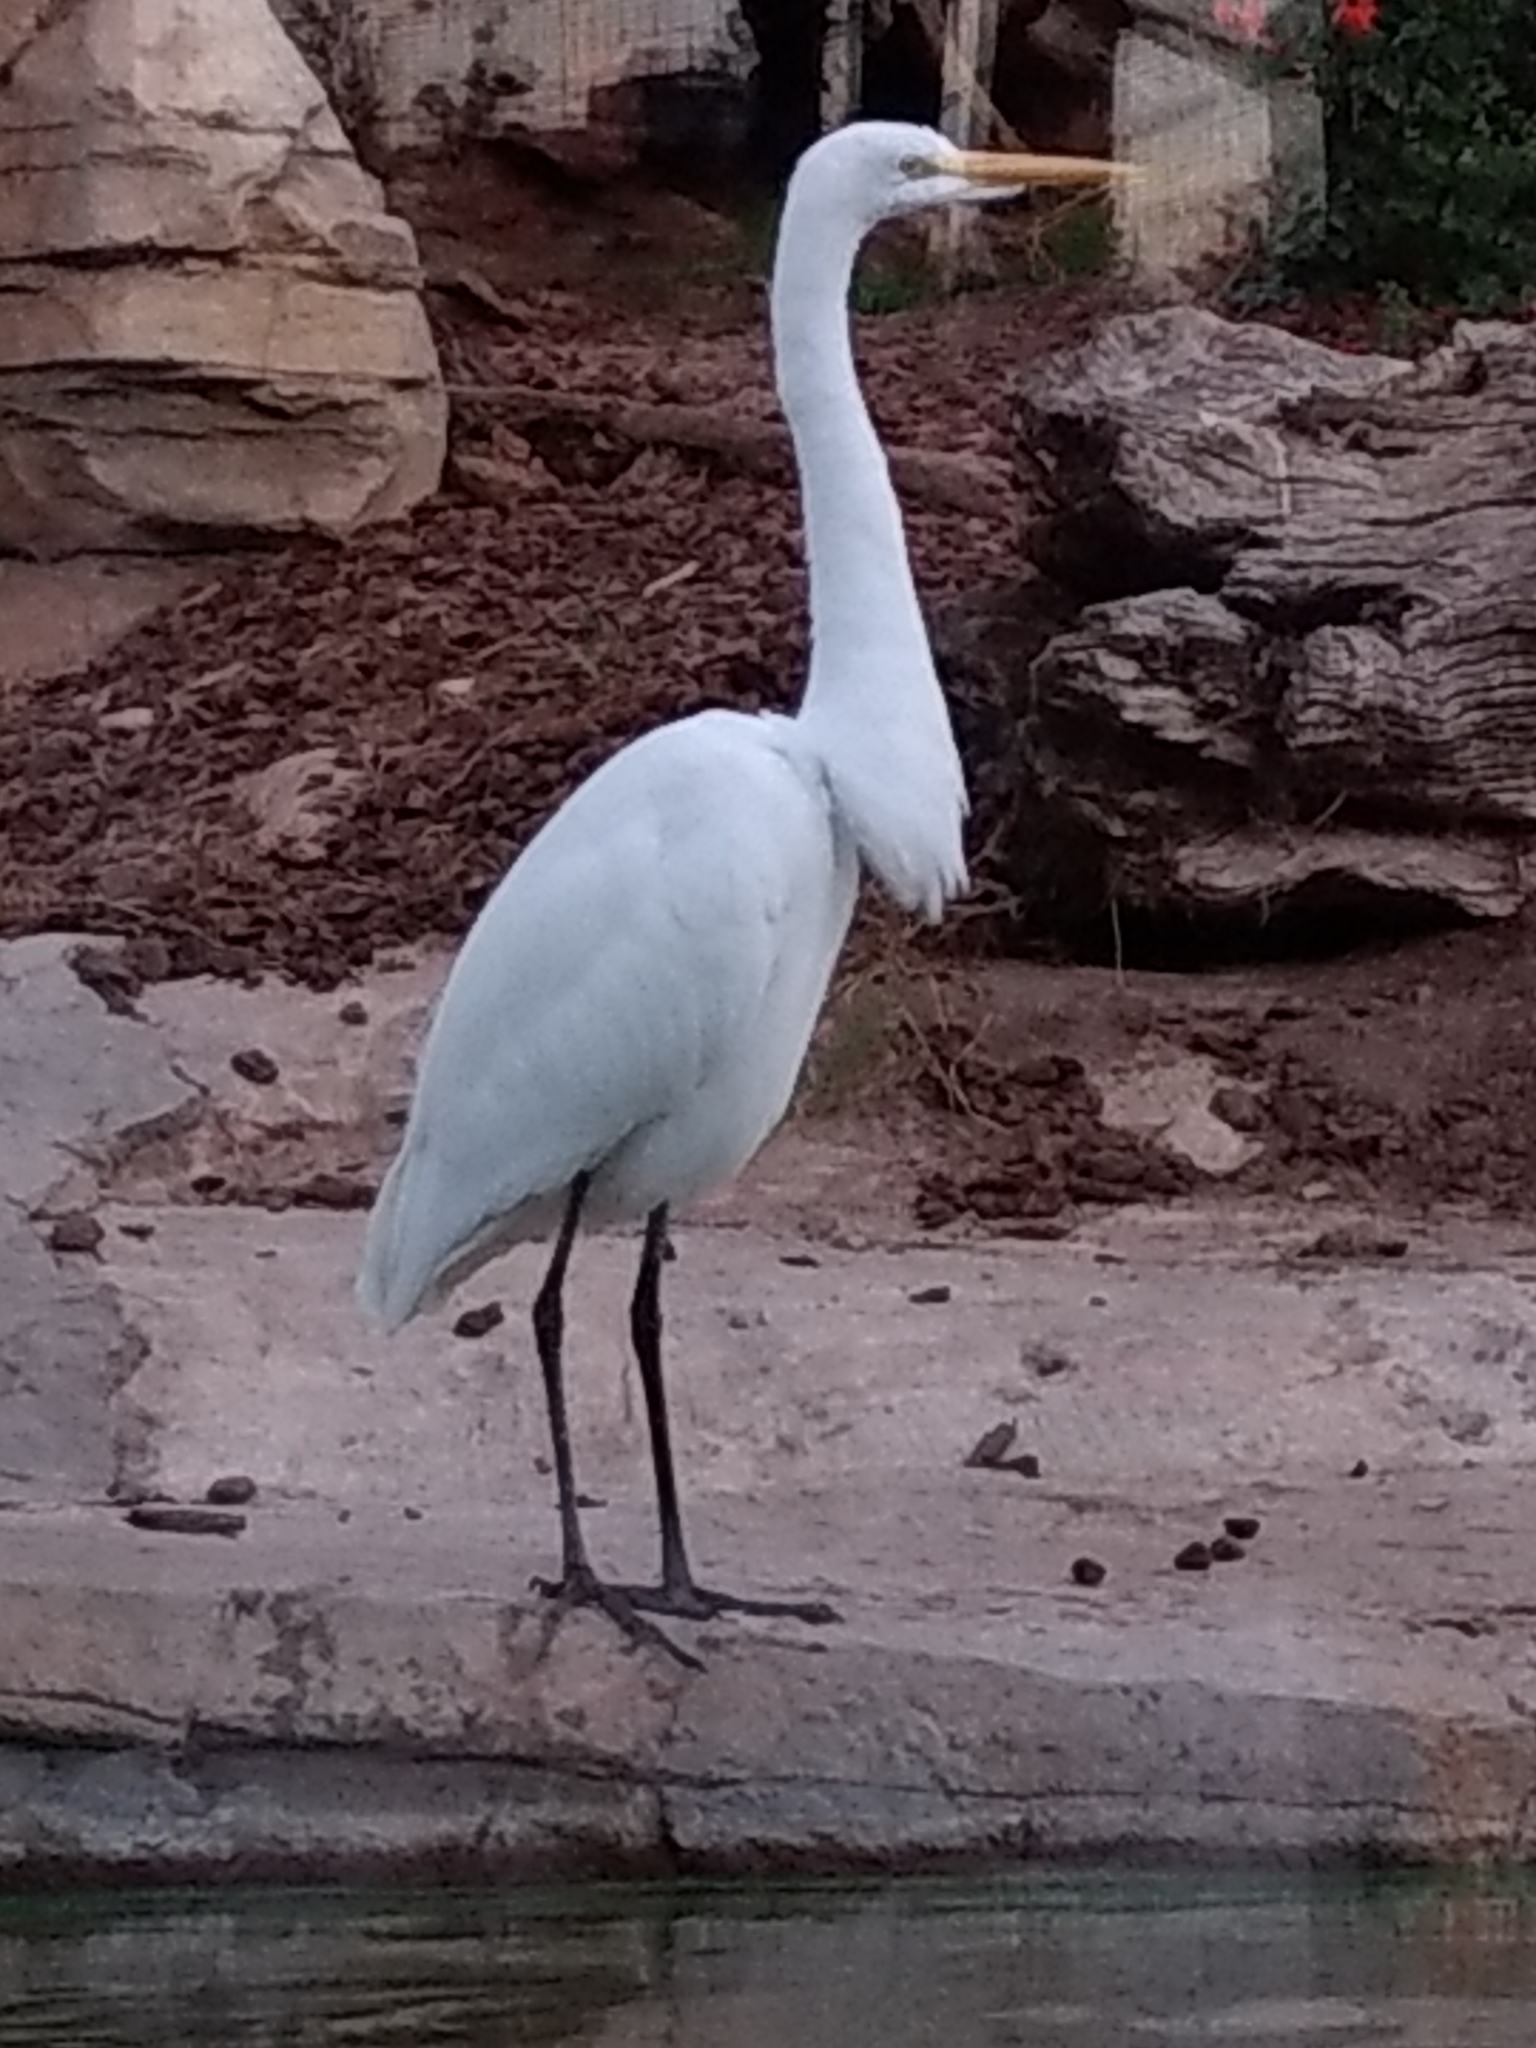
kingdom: Animalia
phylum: Chordata
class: Aves
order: Pelecaniformes
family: Ardeidae
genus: Ardea
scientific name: Ardea alba
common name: Great egret
